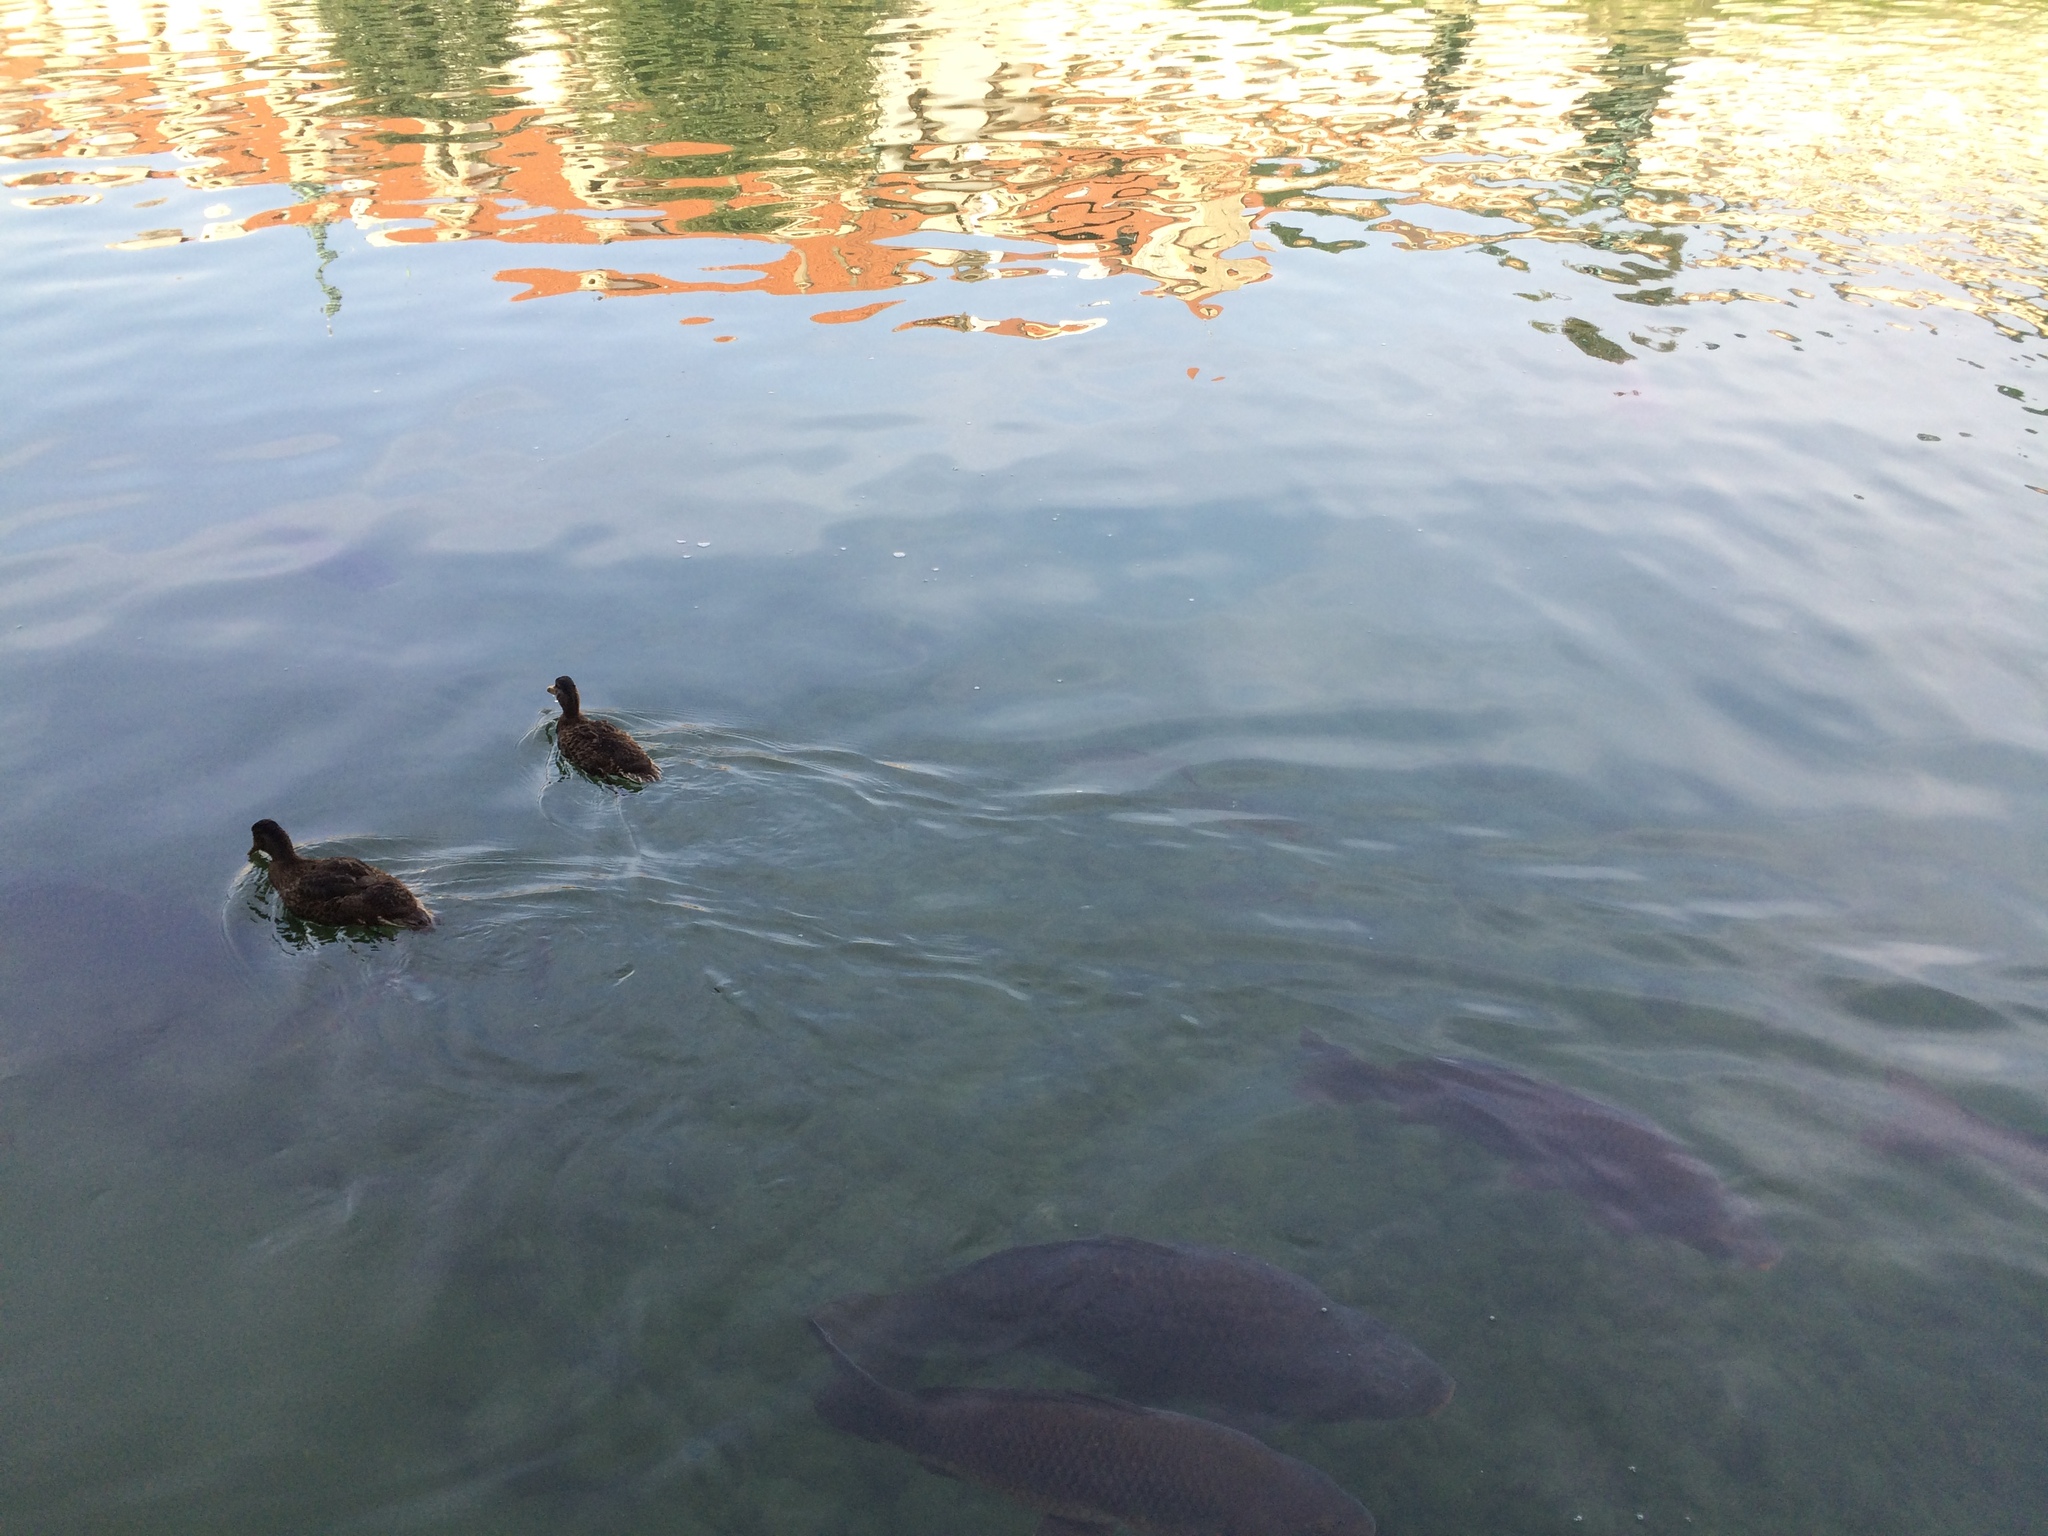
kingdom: Animalia
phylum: Chordata
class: Aves
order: Anseriformes
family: Anatidae
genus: Anas
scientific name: Anas platyrhynchos
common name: Mallard
